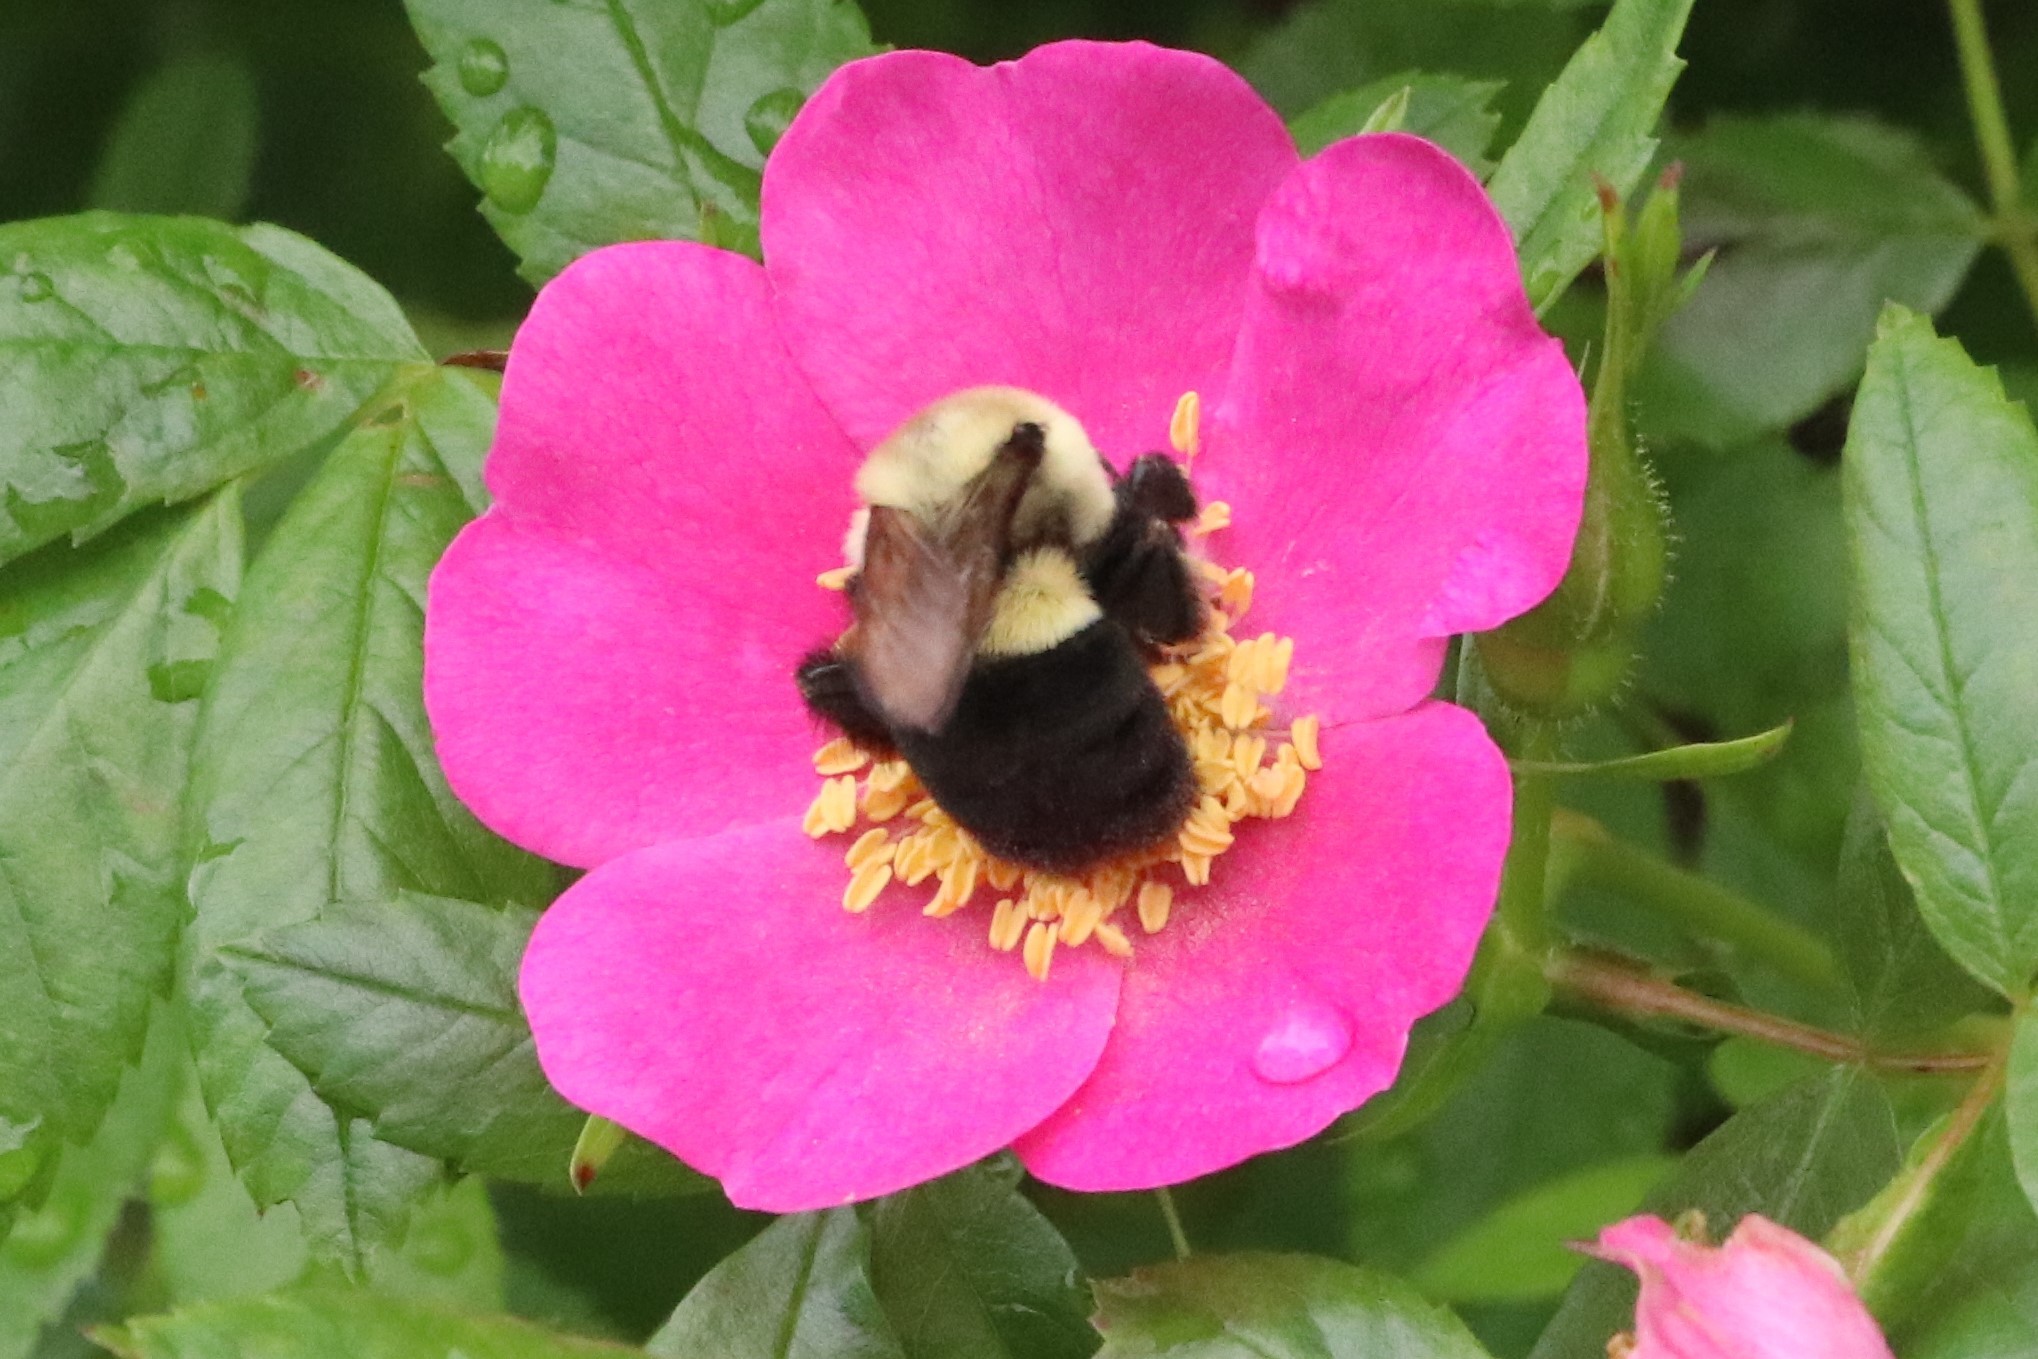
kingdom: Animalia
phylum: Arthropoda
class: Insecta
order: Hymenoptera
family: Apidae
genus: Bombus
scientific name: Bombus impatiens
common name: Common eastern bumble bee
